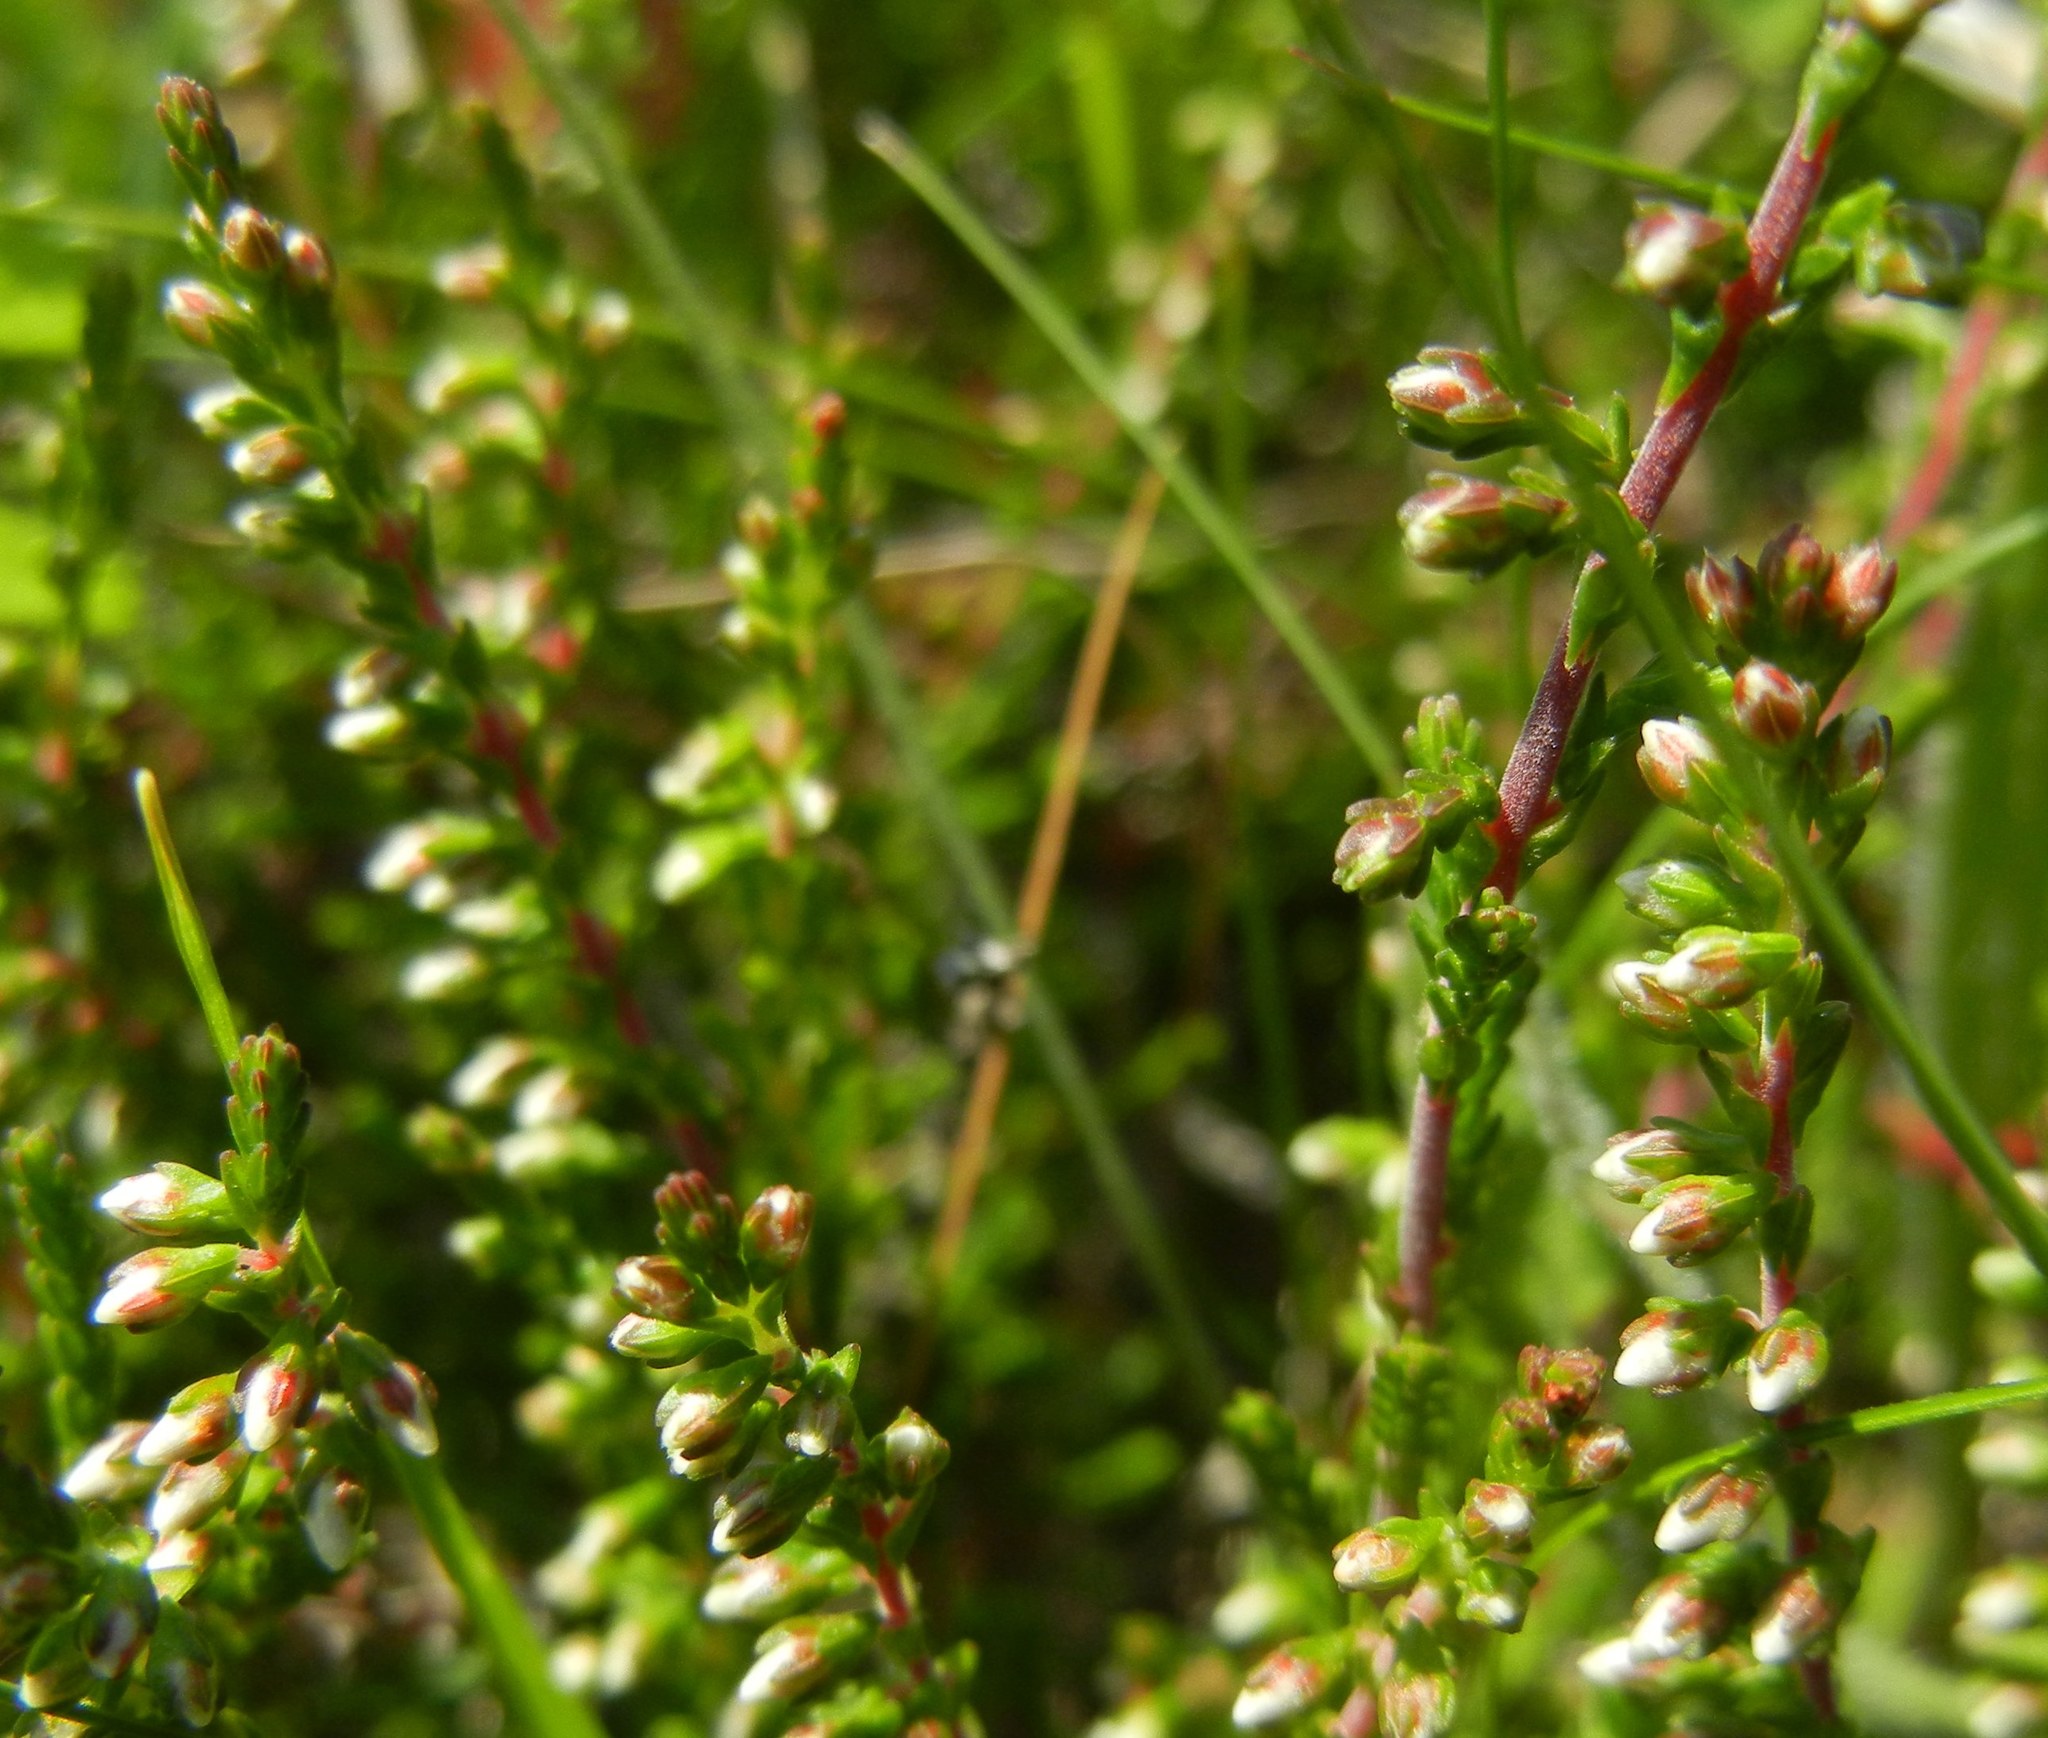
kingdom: Plantae
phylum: Tracheophyta
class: Magnoliopsida
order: Ericales
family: Ericaceae
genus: Calluna
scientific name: Calluna vulgaris
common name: Heather
